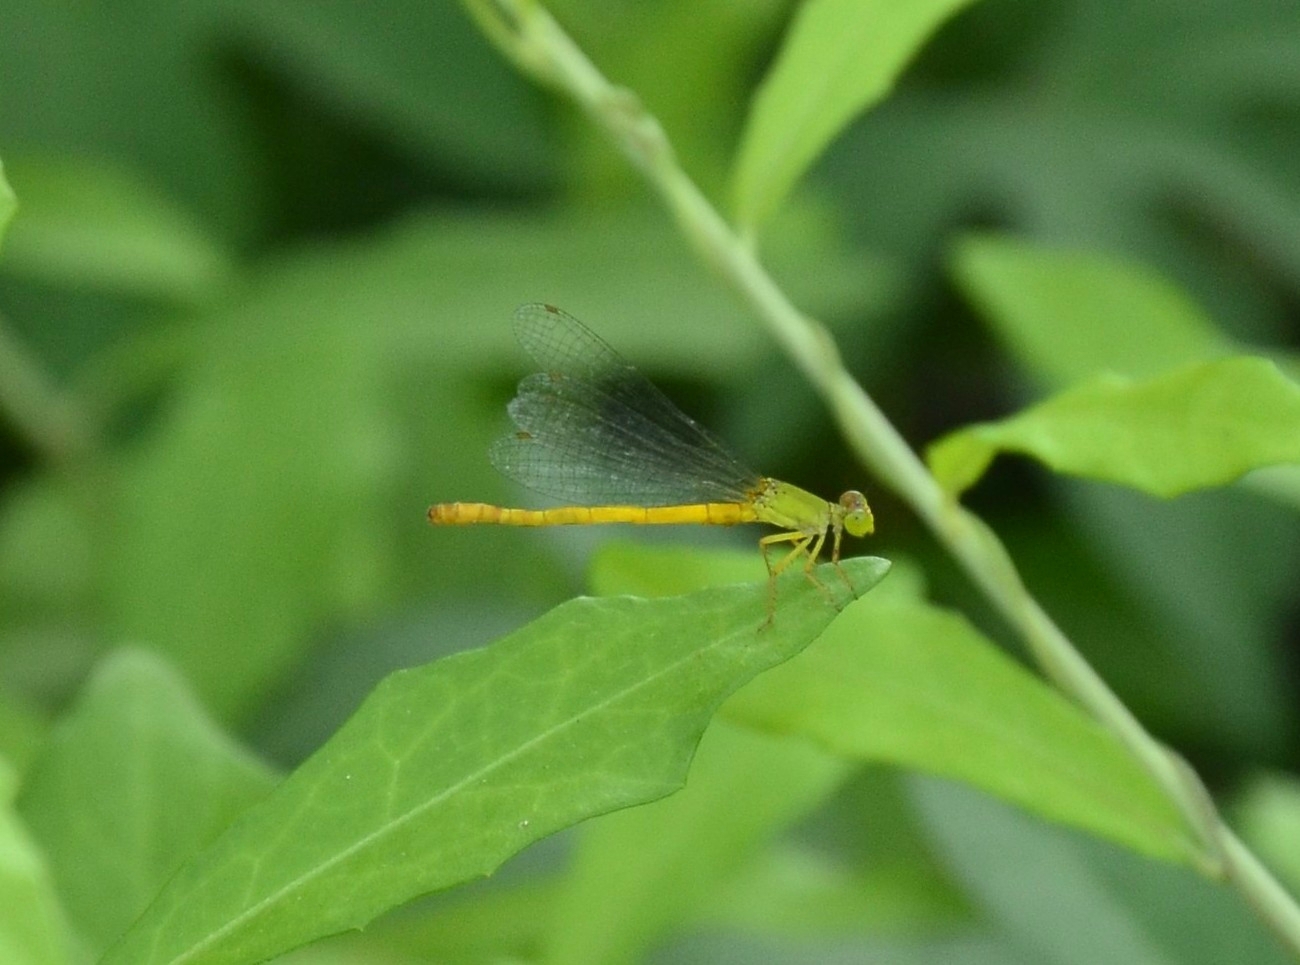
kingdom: Animalia
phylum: Arthropoda
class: Insecta
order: Odonata
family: Coenagrionidae
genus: Ceriagrion
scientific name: Ceriagrion coromandelianum
